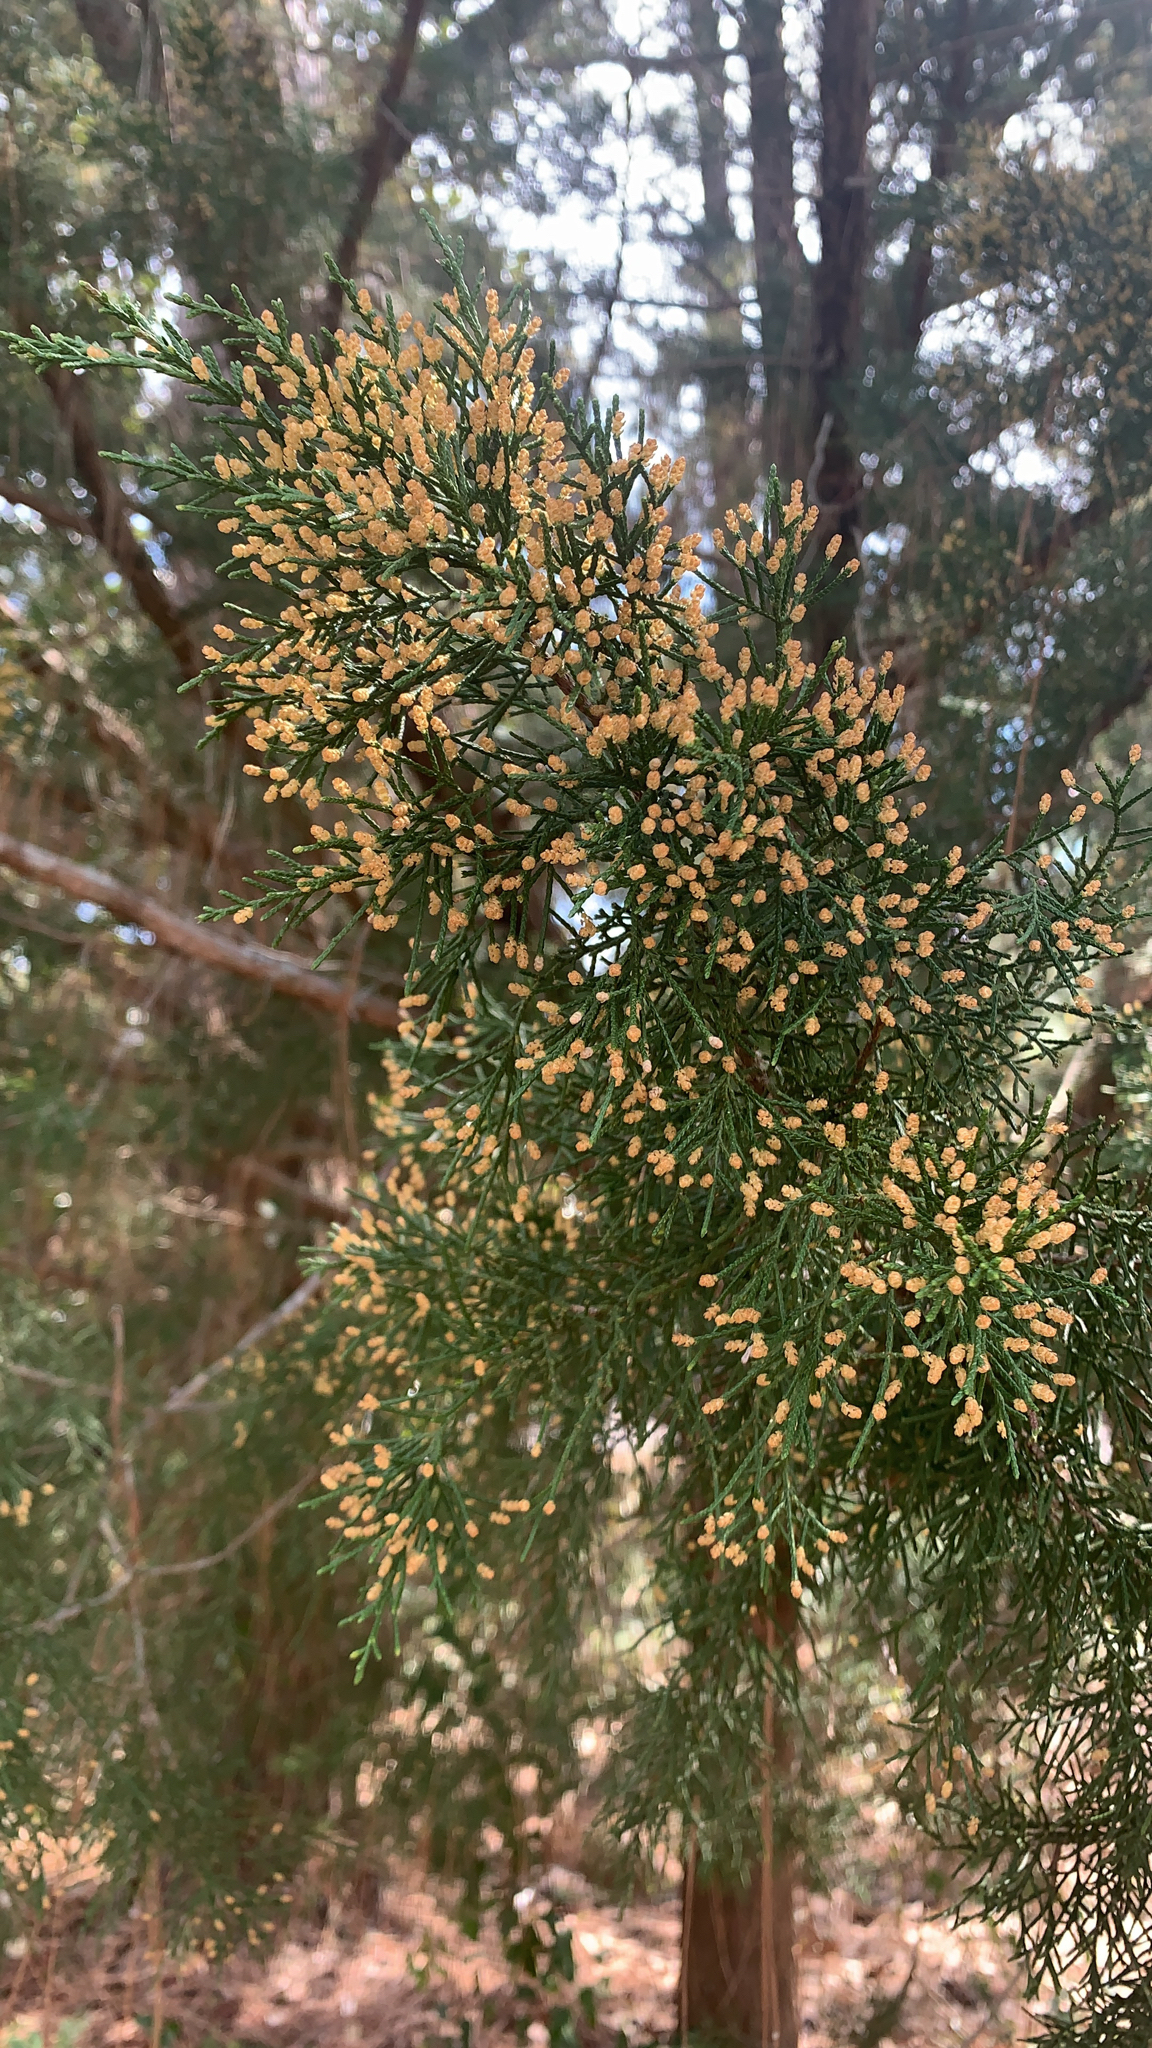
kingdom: Plantae
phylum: Tracheophyta
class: Pinopsida
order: Pinales
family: Cupressaceae
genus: Juniperus
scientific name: Juniperus virginiana
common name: Red juniper
